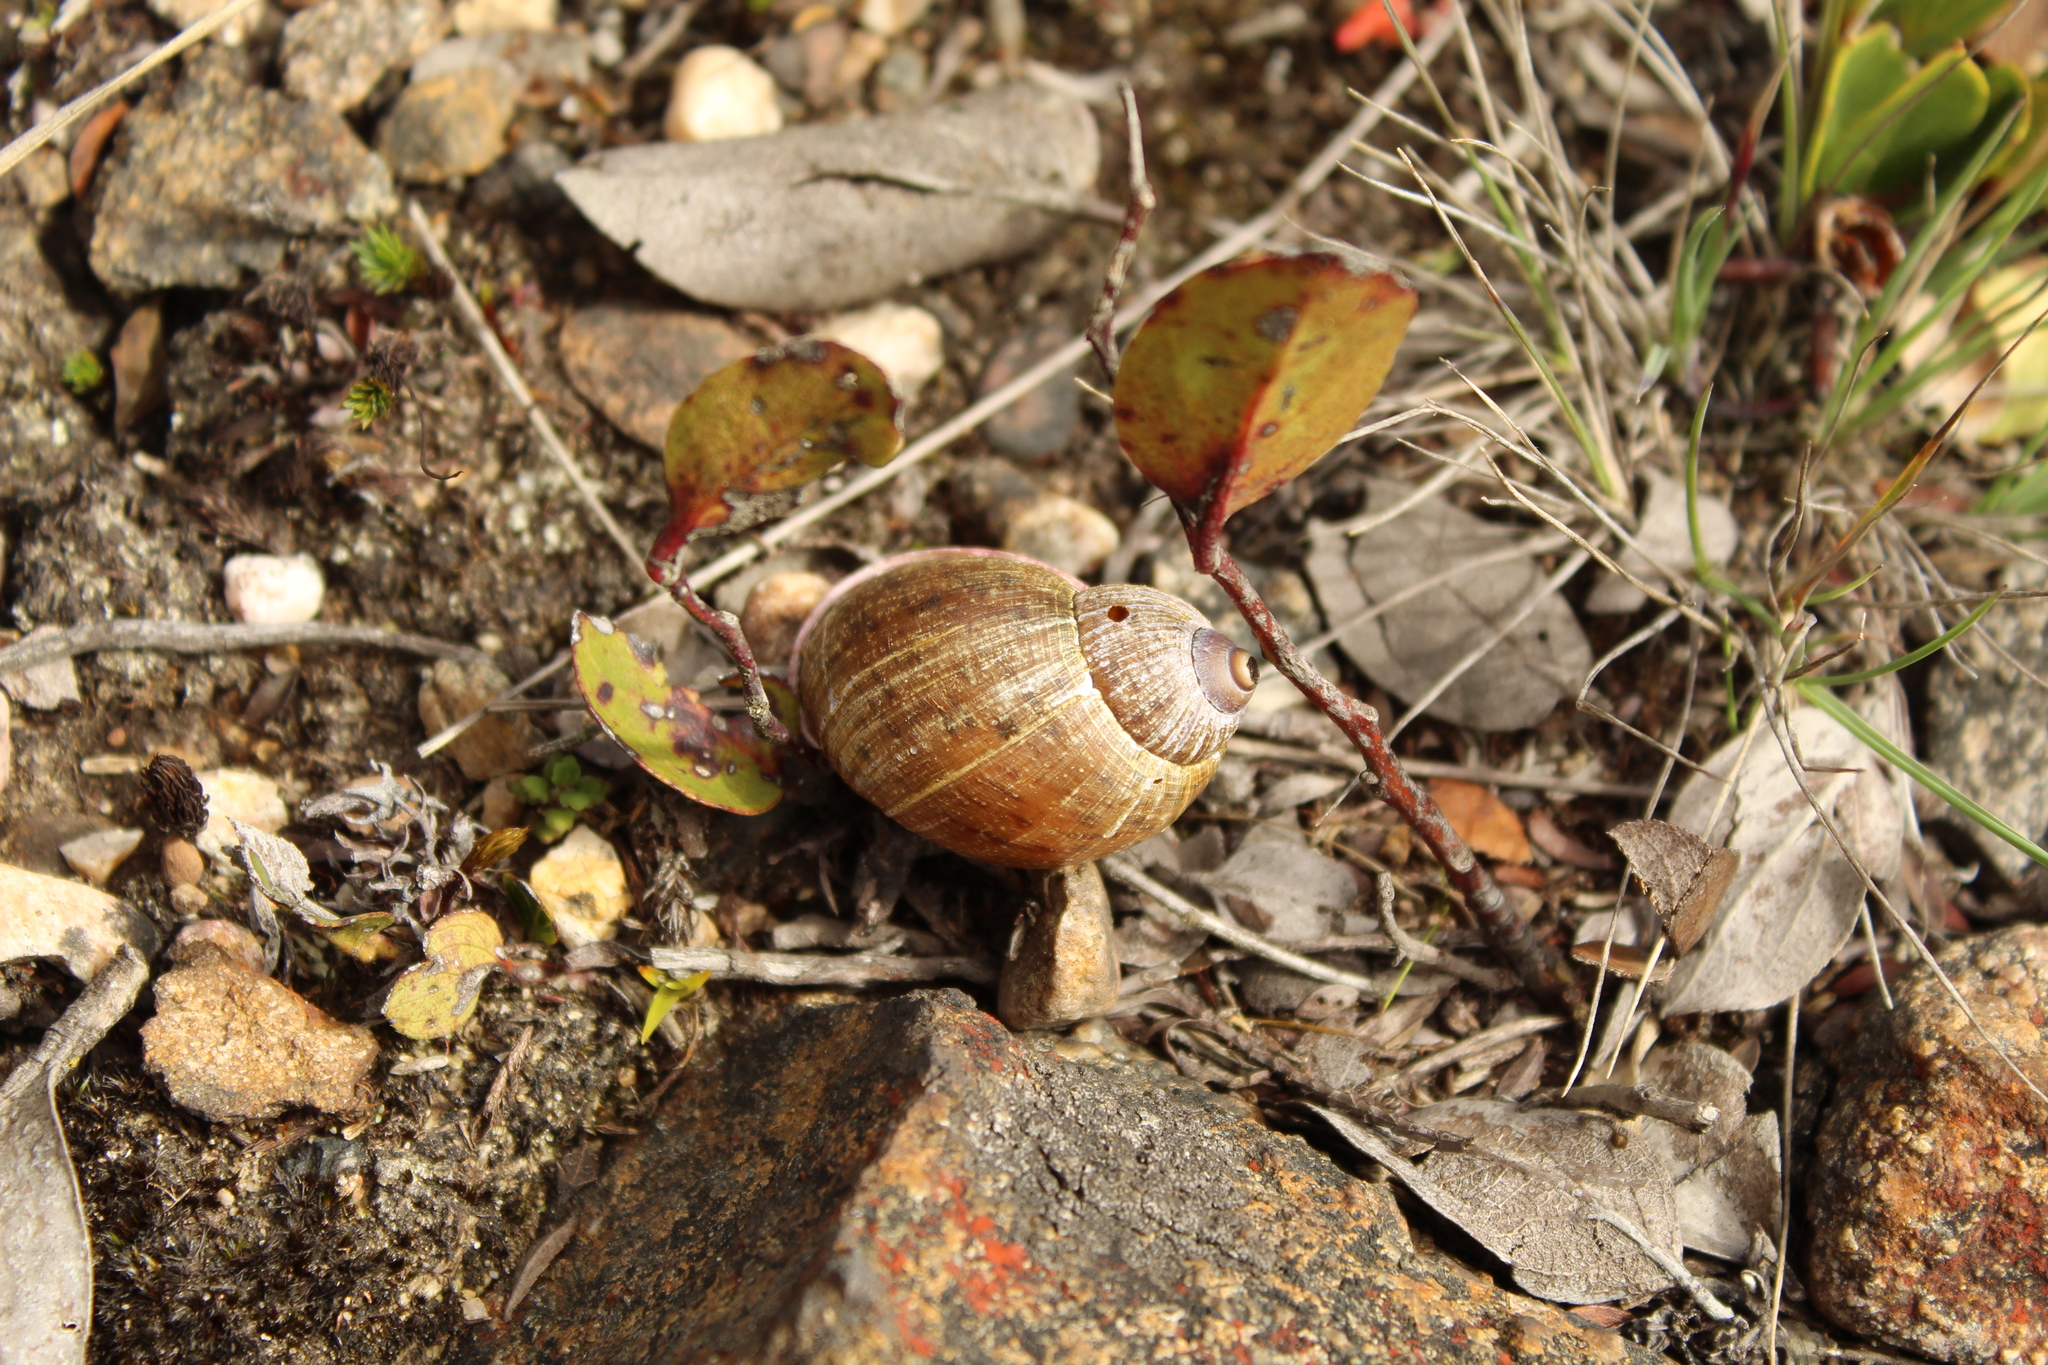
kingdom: Animalia
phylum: Mollusca
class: Gastropoda
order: Stylommatophora
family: Amphibulimidae
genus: Plekocheilus
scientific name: Plekocheilus pulicarius
